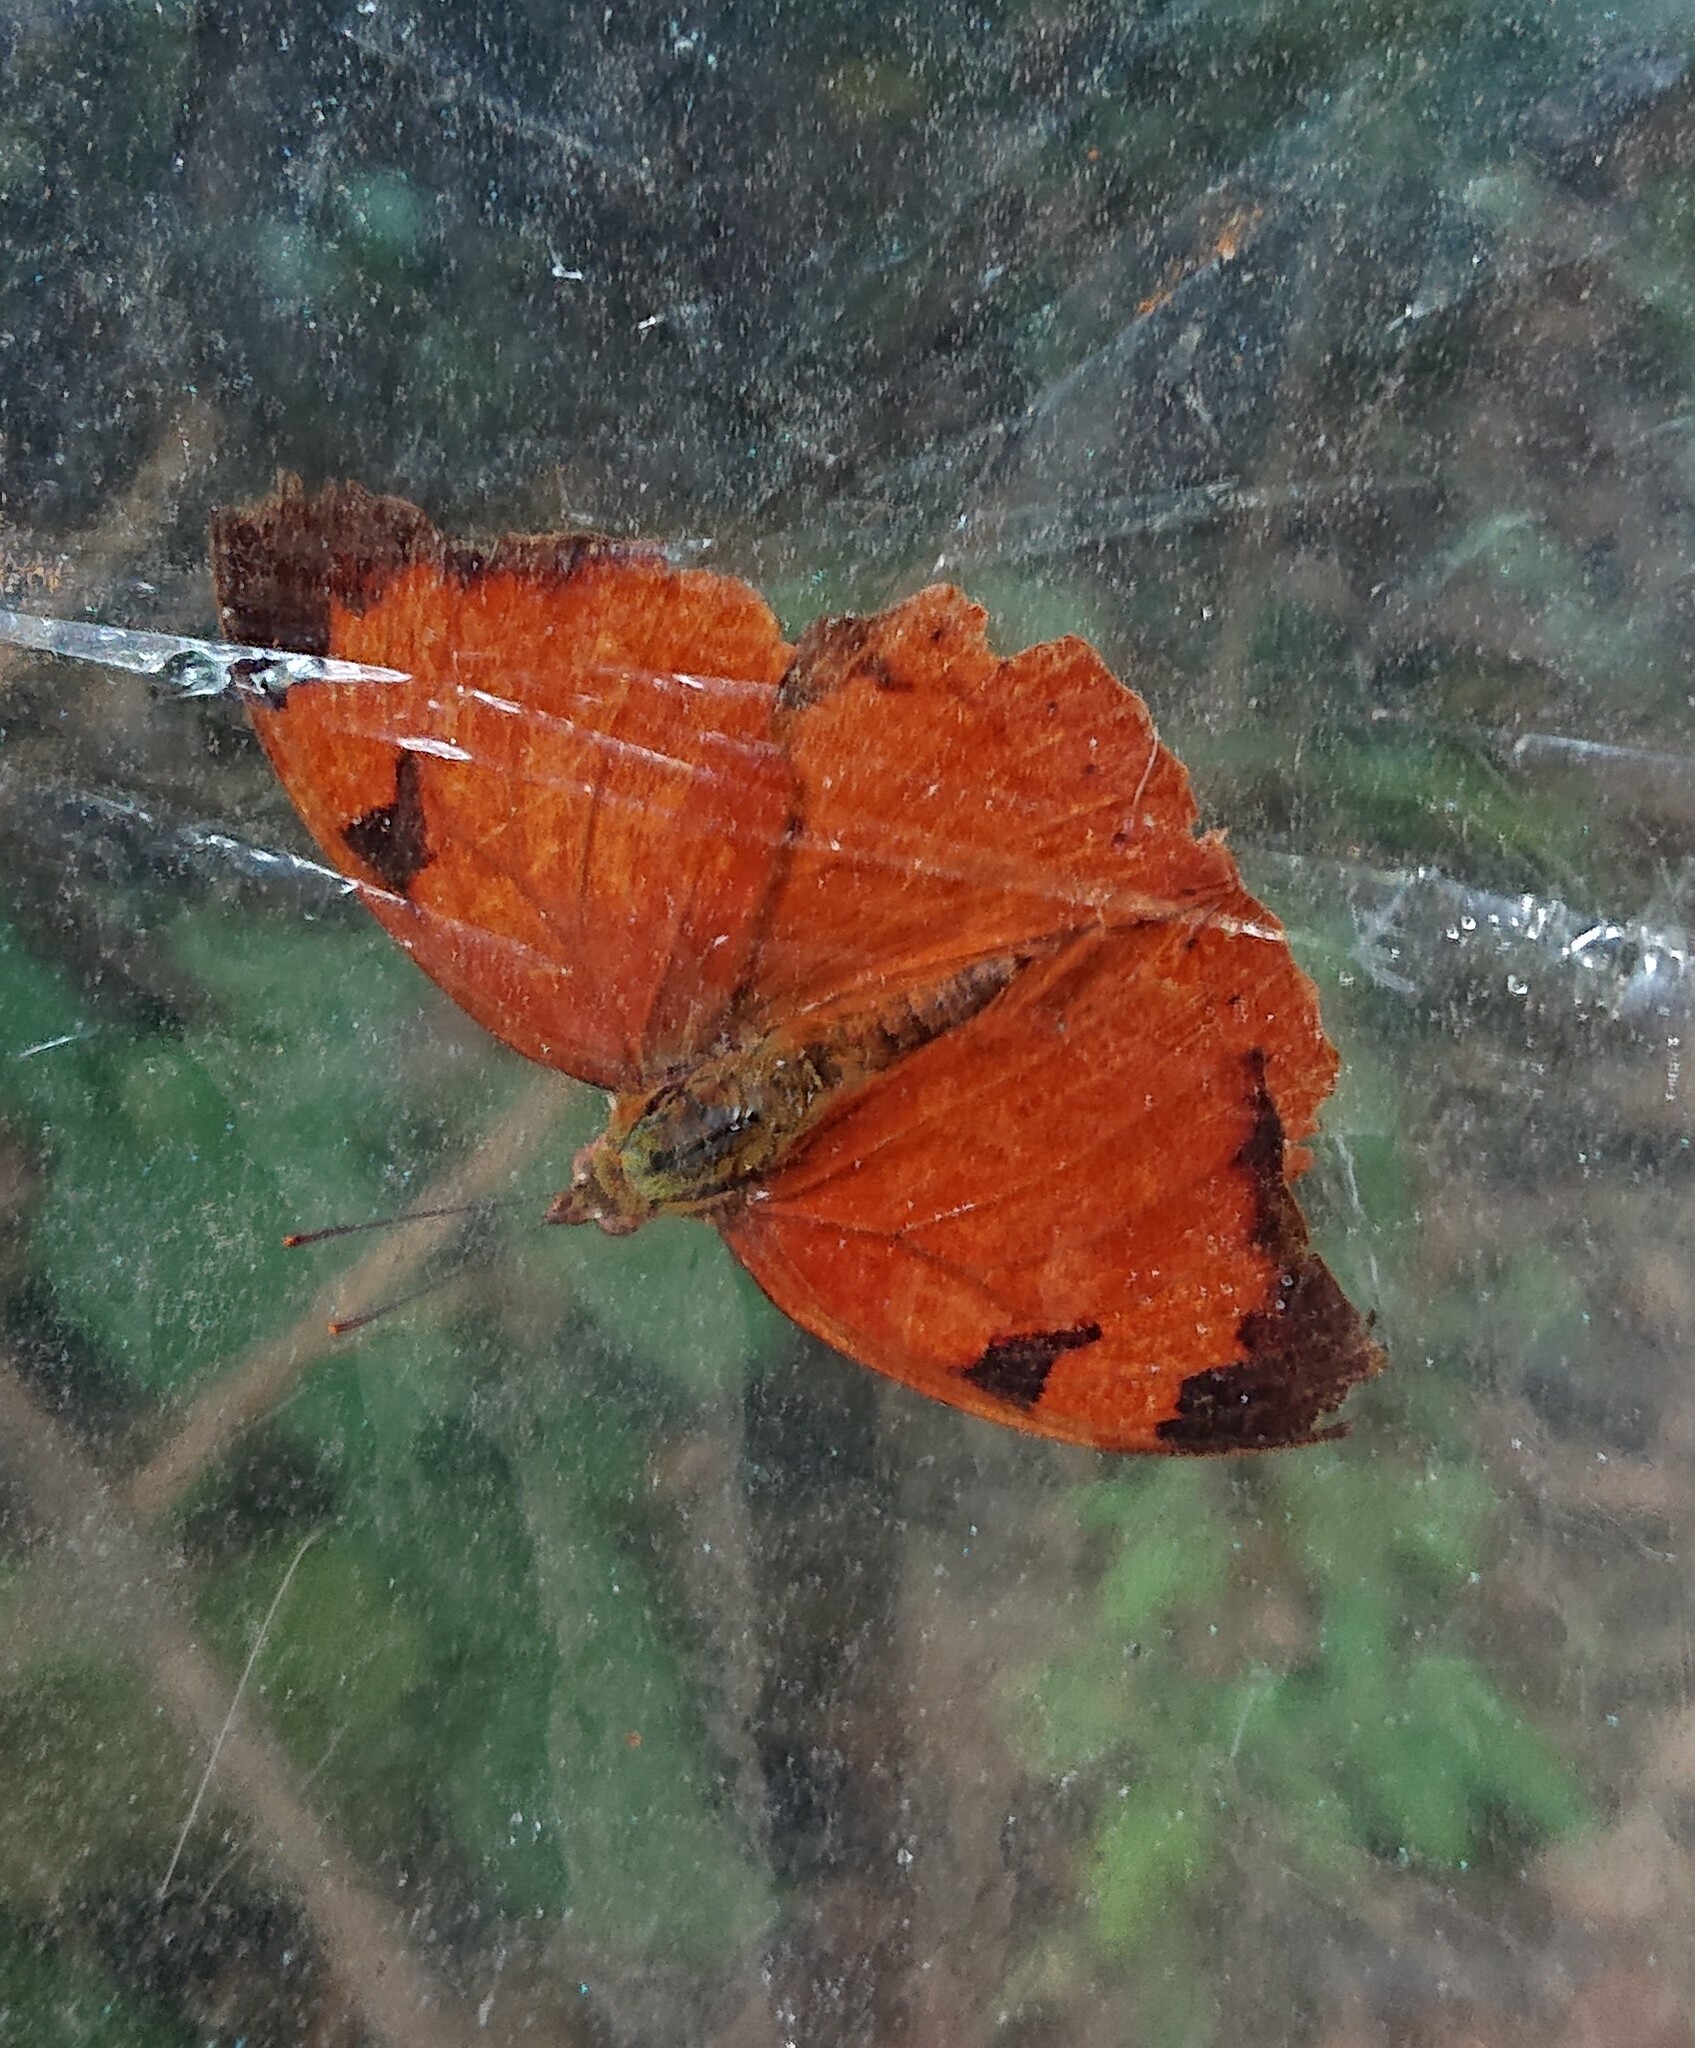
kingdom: Animalia
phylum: Arthropoda
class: Insecta
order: Lepidoptera
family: Nymphalidae
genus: Temenis
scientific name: Temenis laothoe
